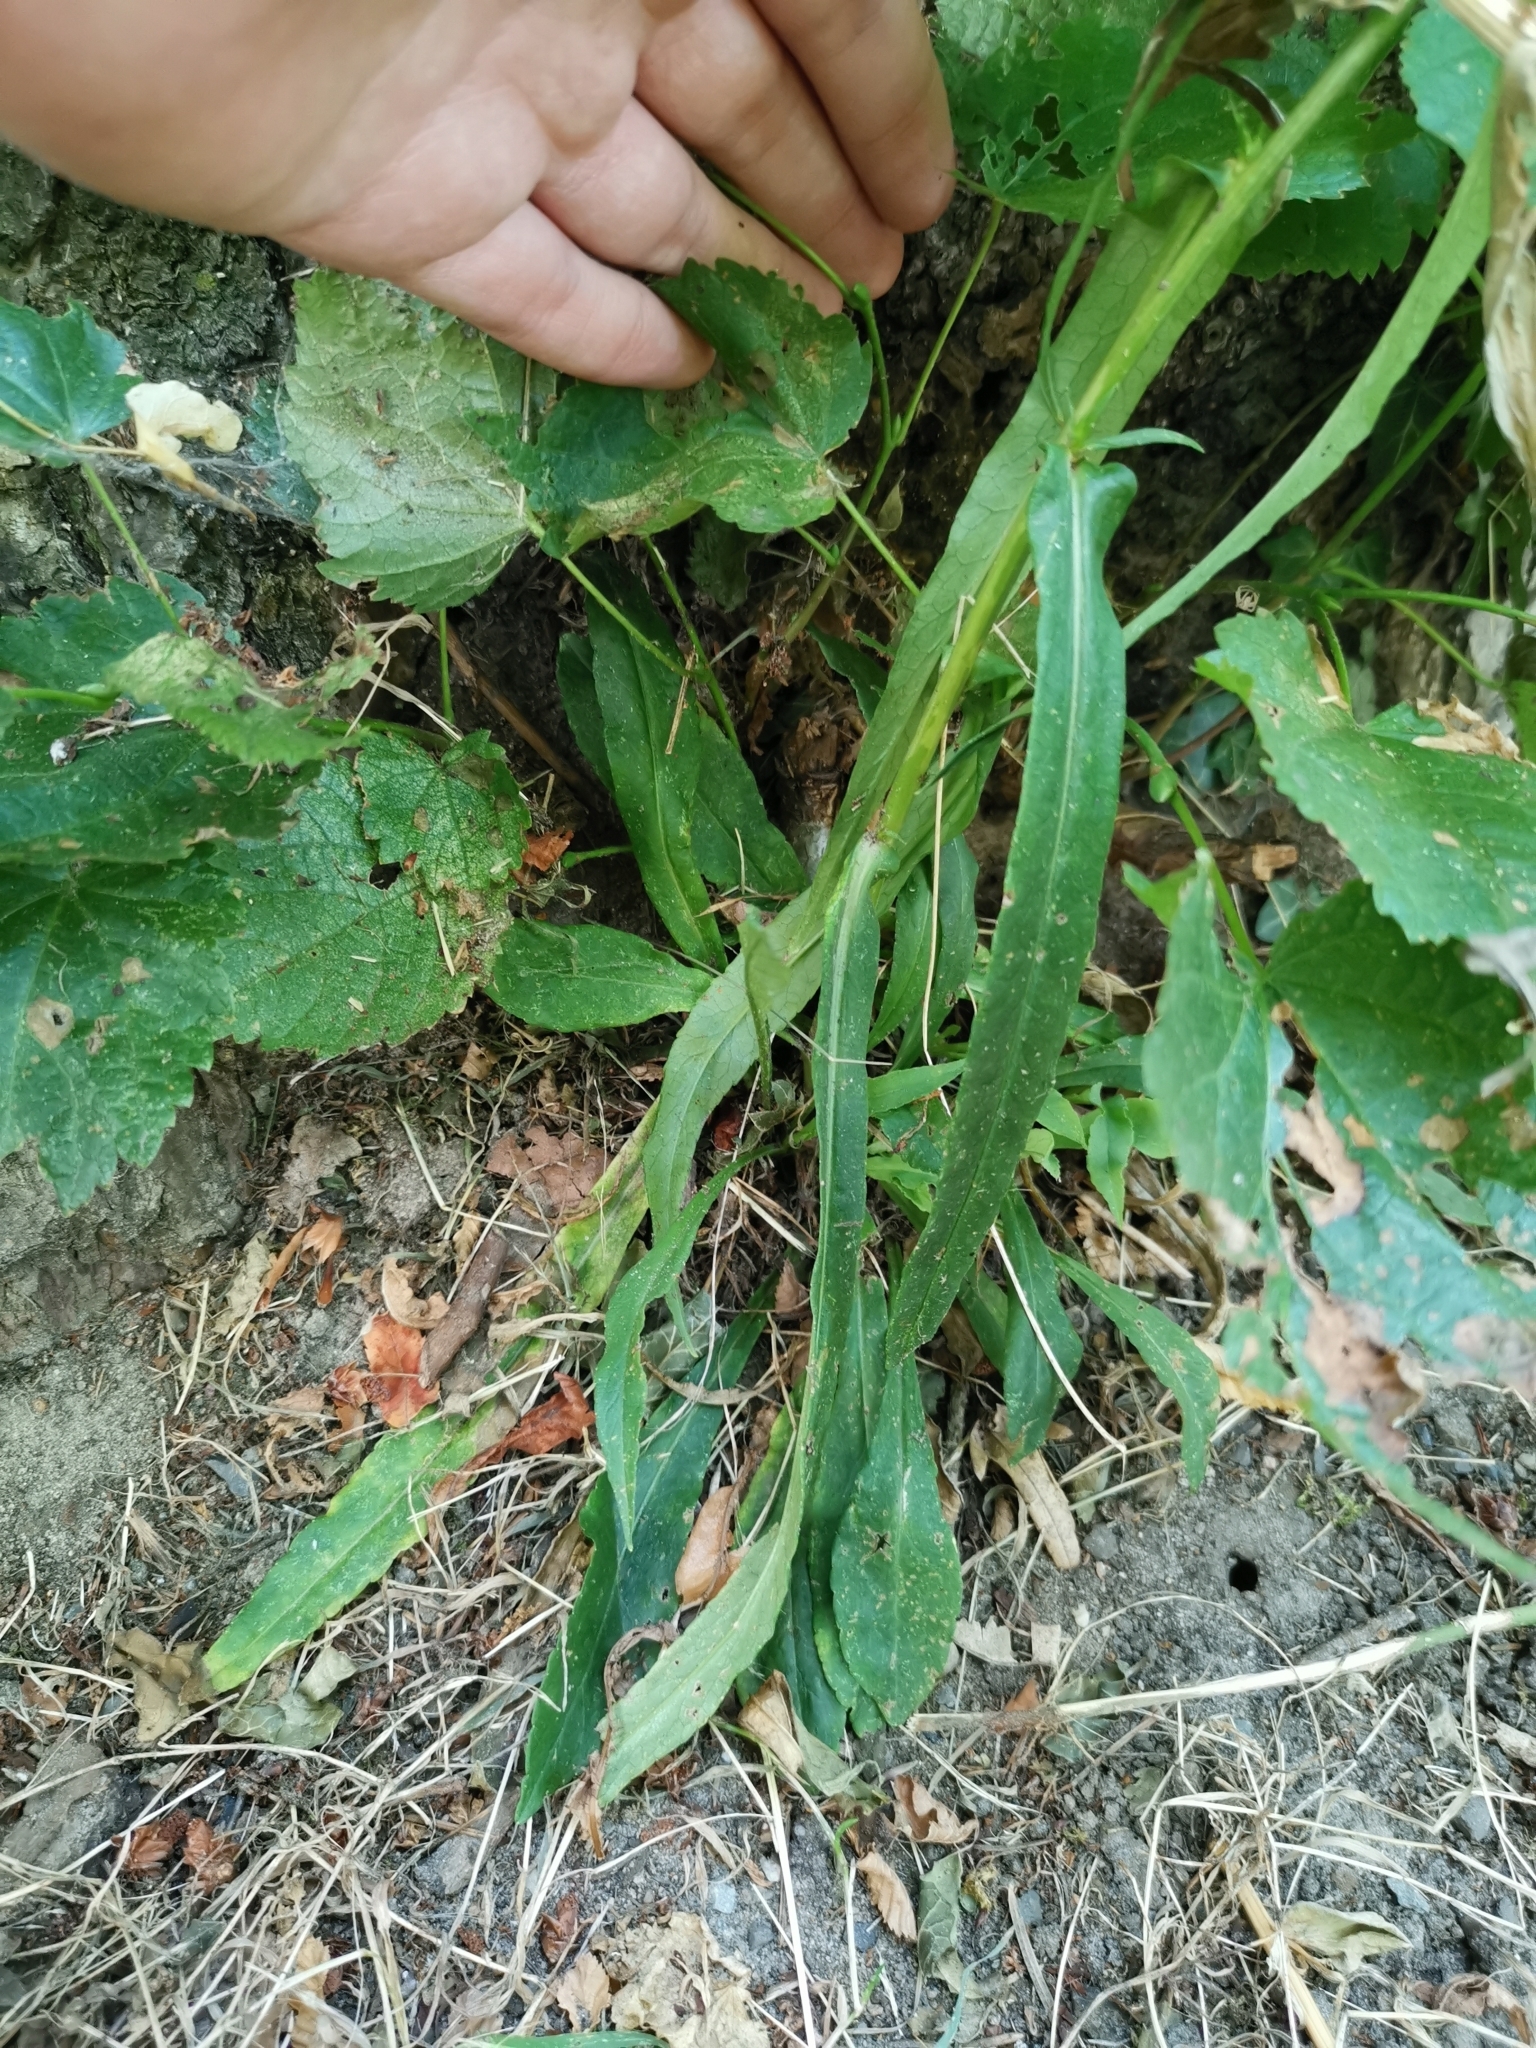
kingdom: Plantae
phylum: Tracheophyta
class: Magnoliopsida
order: Asterales
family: Campanulaceae
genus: Campanula
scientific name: Campanula persicifolia
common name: Peach-leaved bellflower
